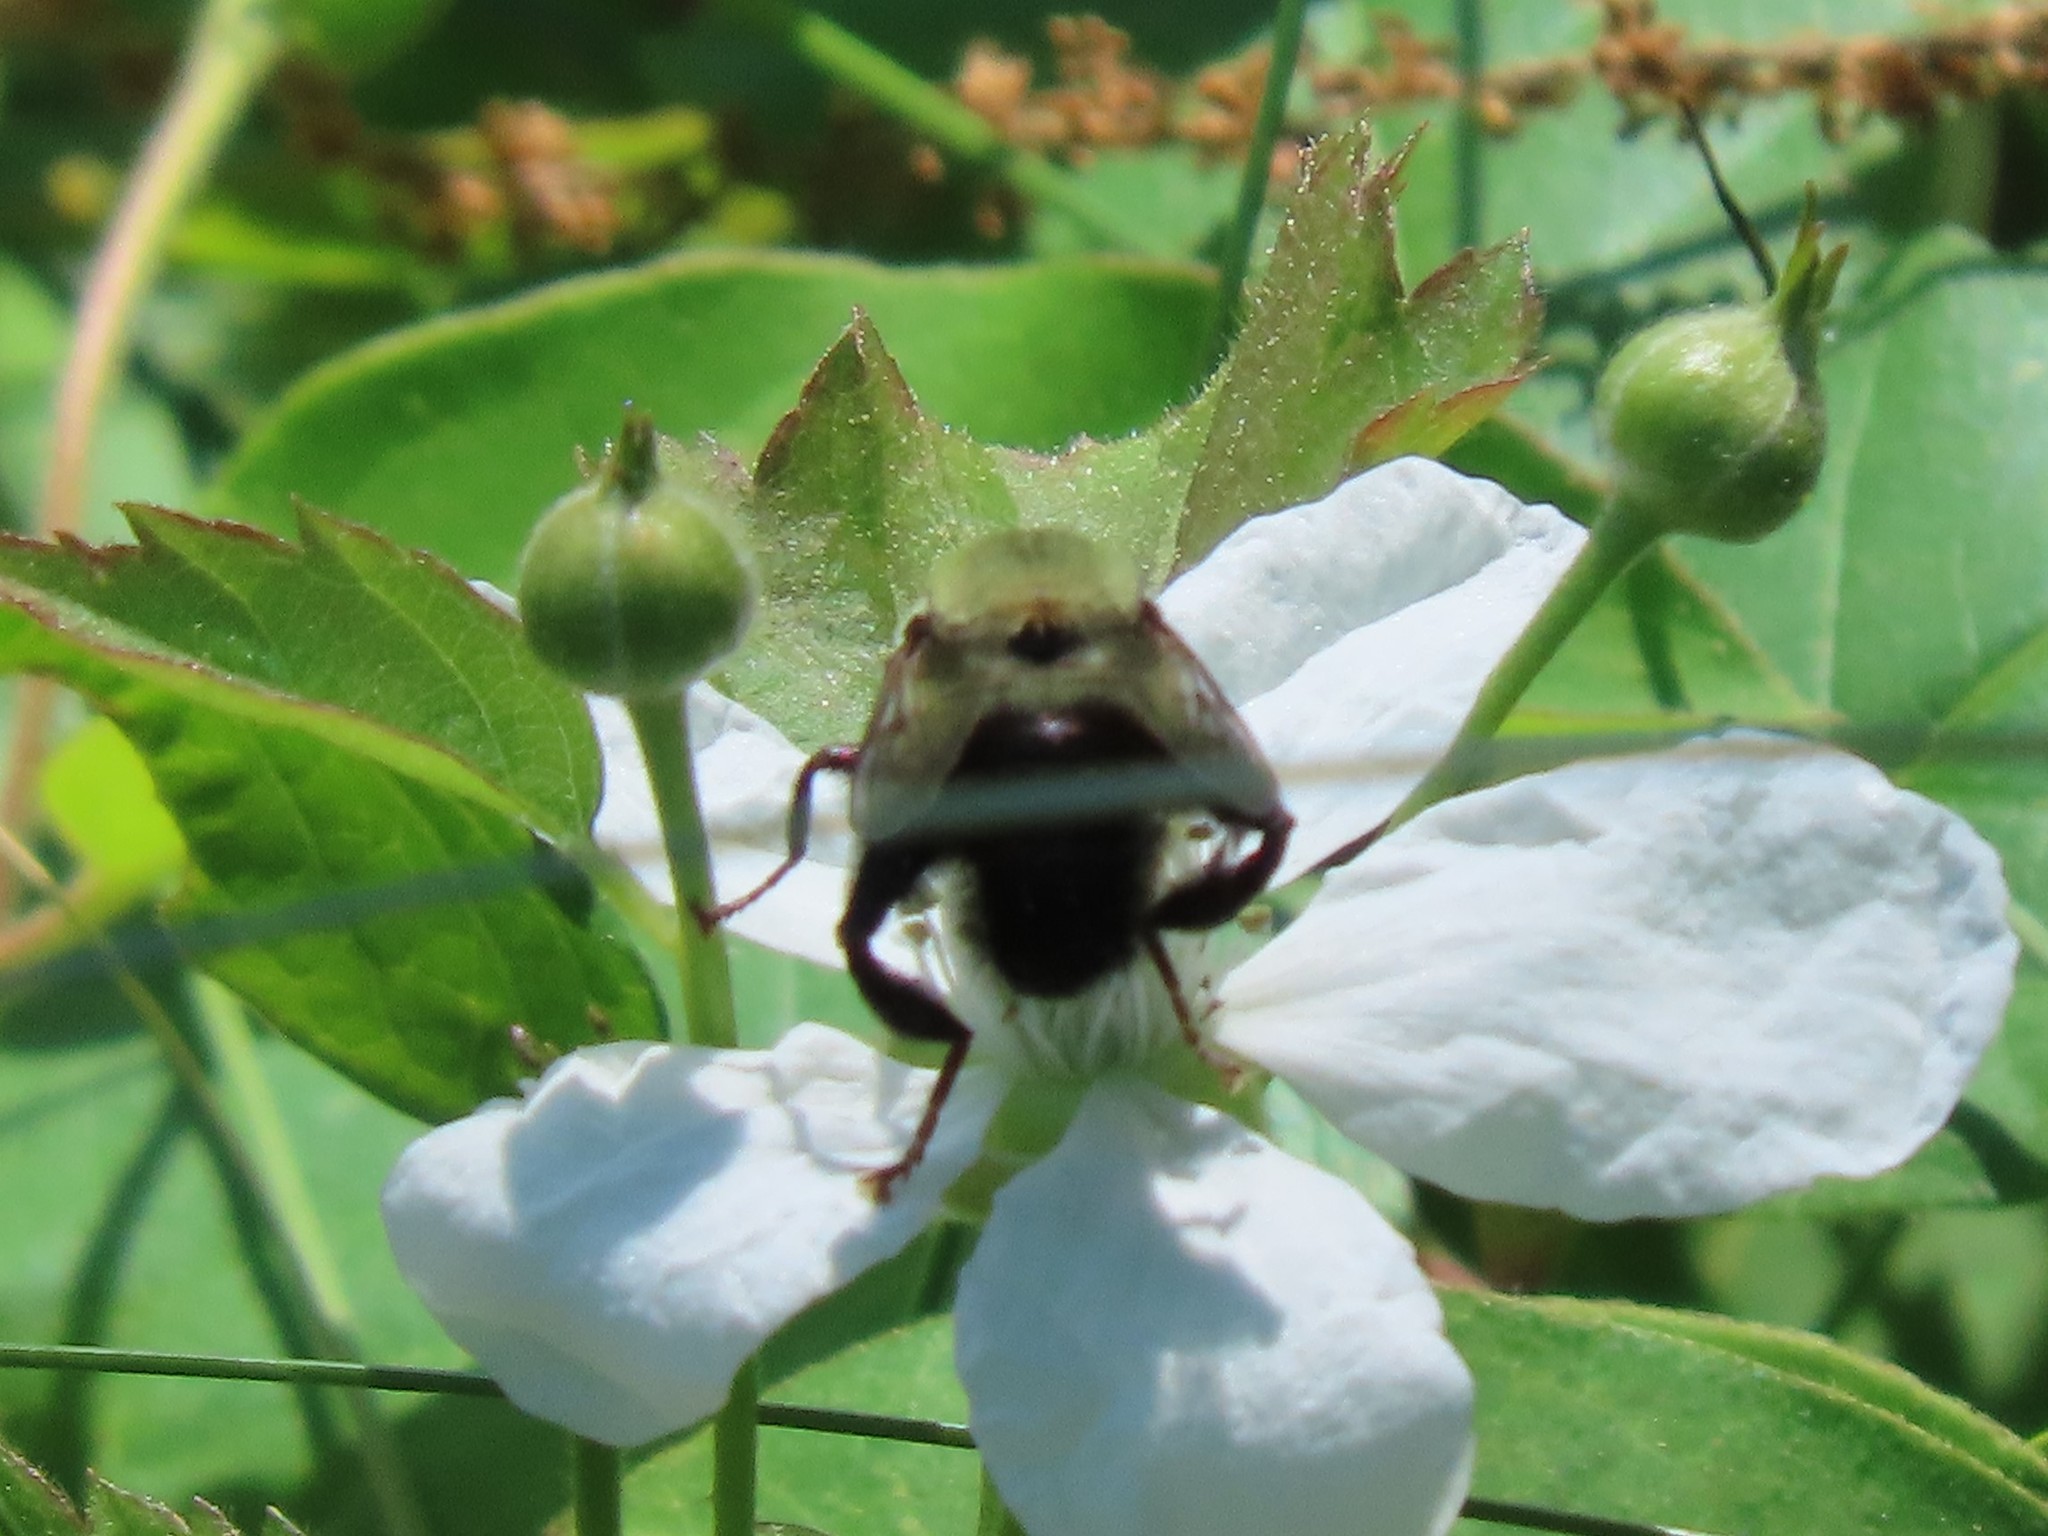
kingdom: Animalia
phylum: Arthropoda
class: Insecta
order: Diptera
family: Syrphidae
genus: Imatisma
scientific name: Imatisma posticata
